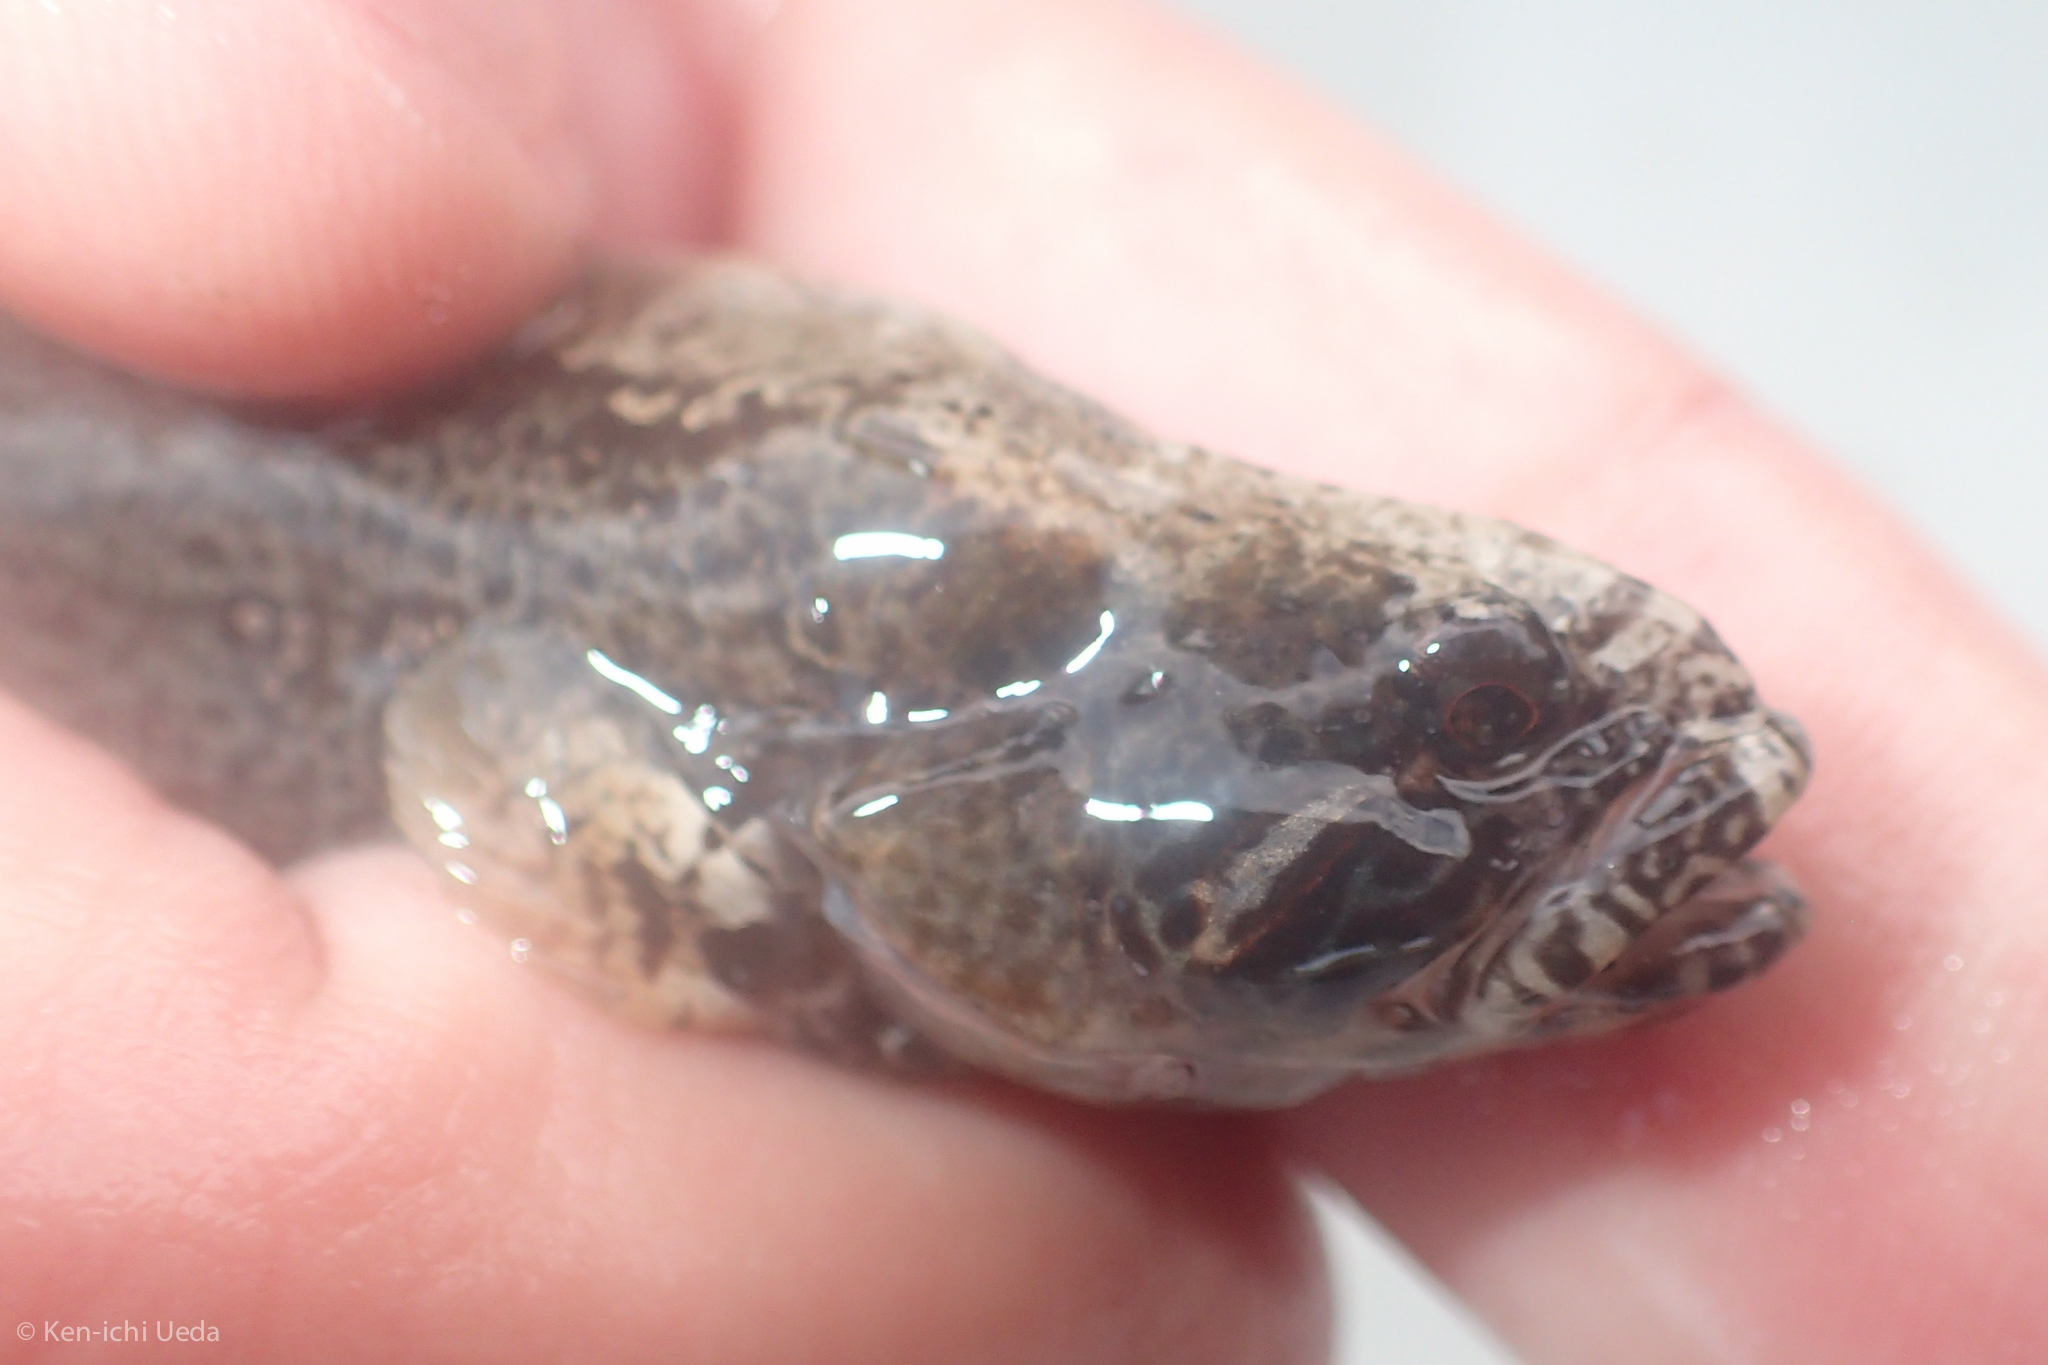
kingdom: Animalia
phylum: Chordata
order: Perciformes
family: Stichaeidae
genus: Anoplarchus
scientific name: Anoplarchus purpurescens
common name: High cockscomb
